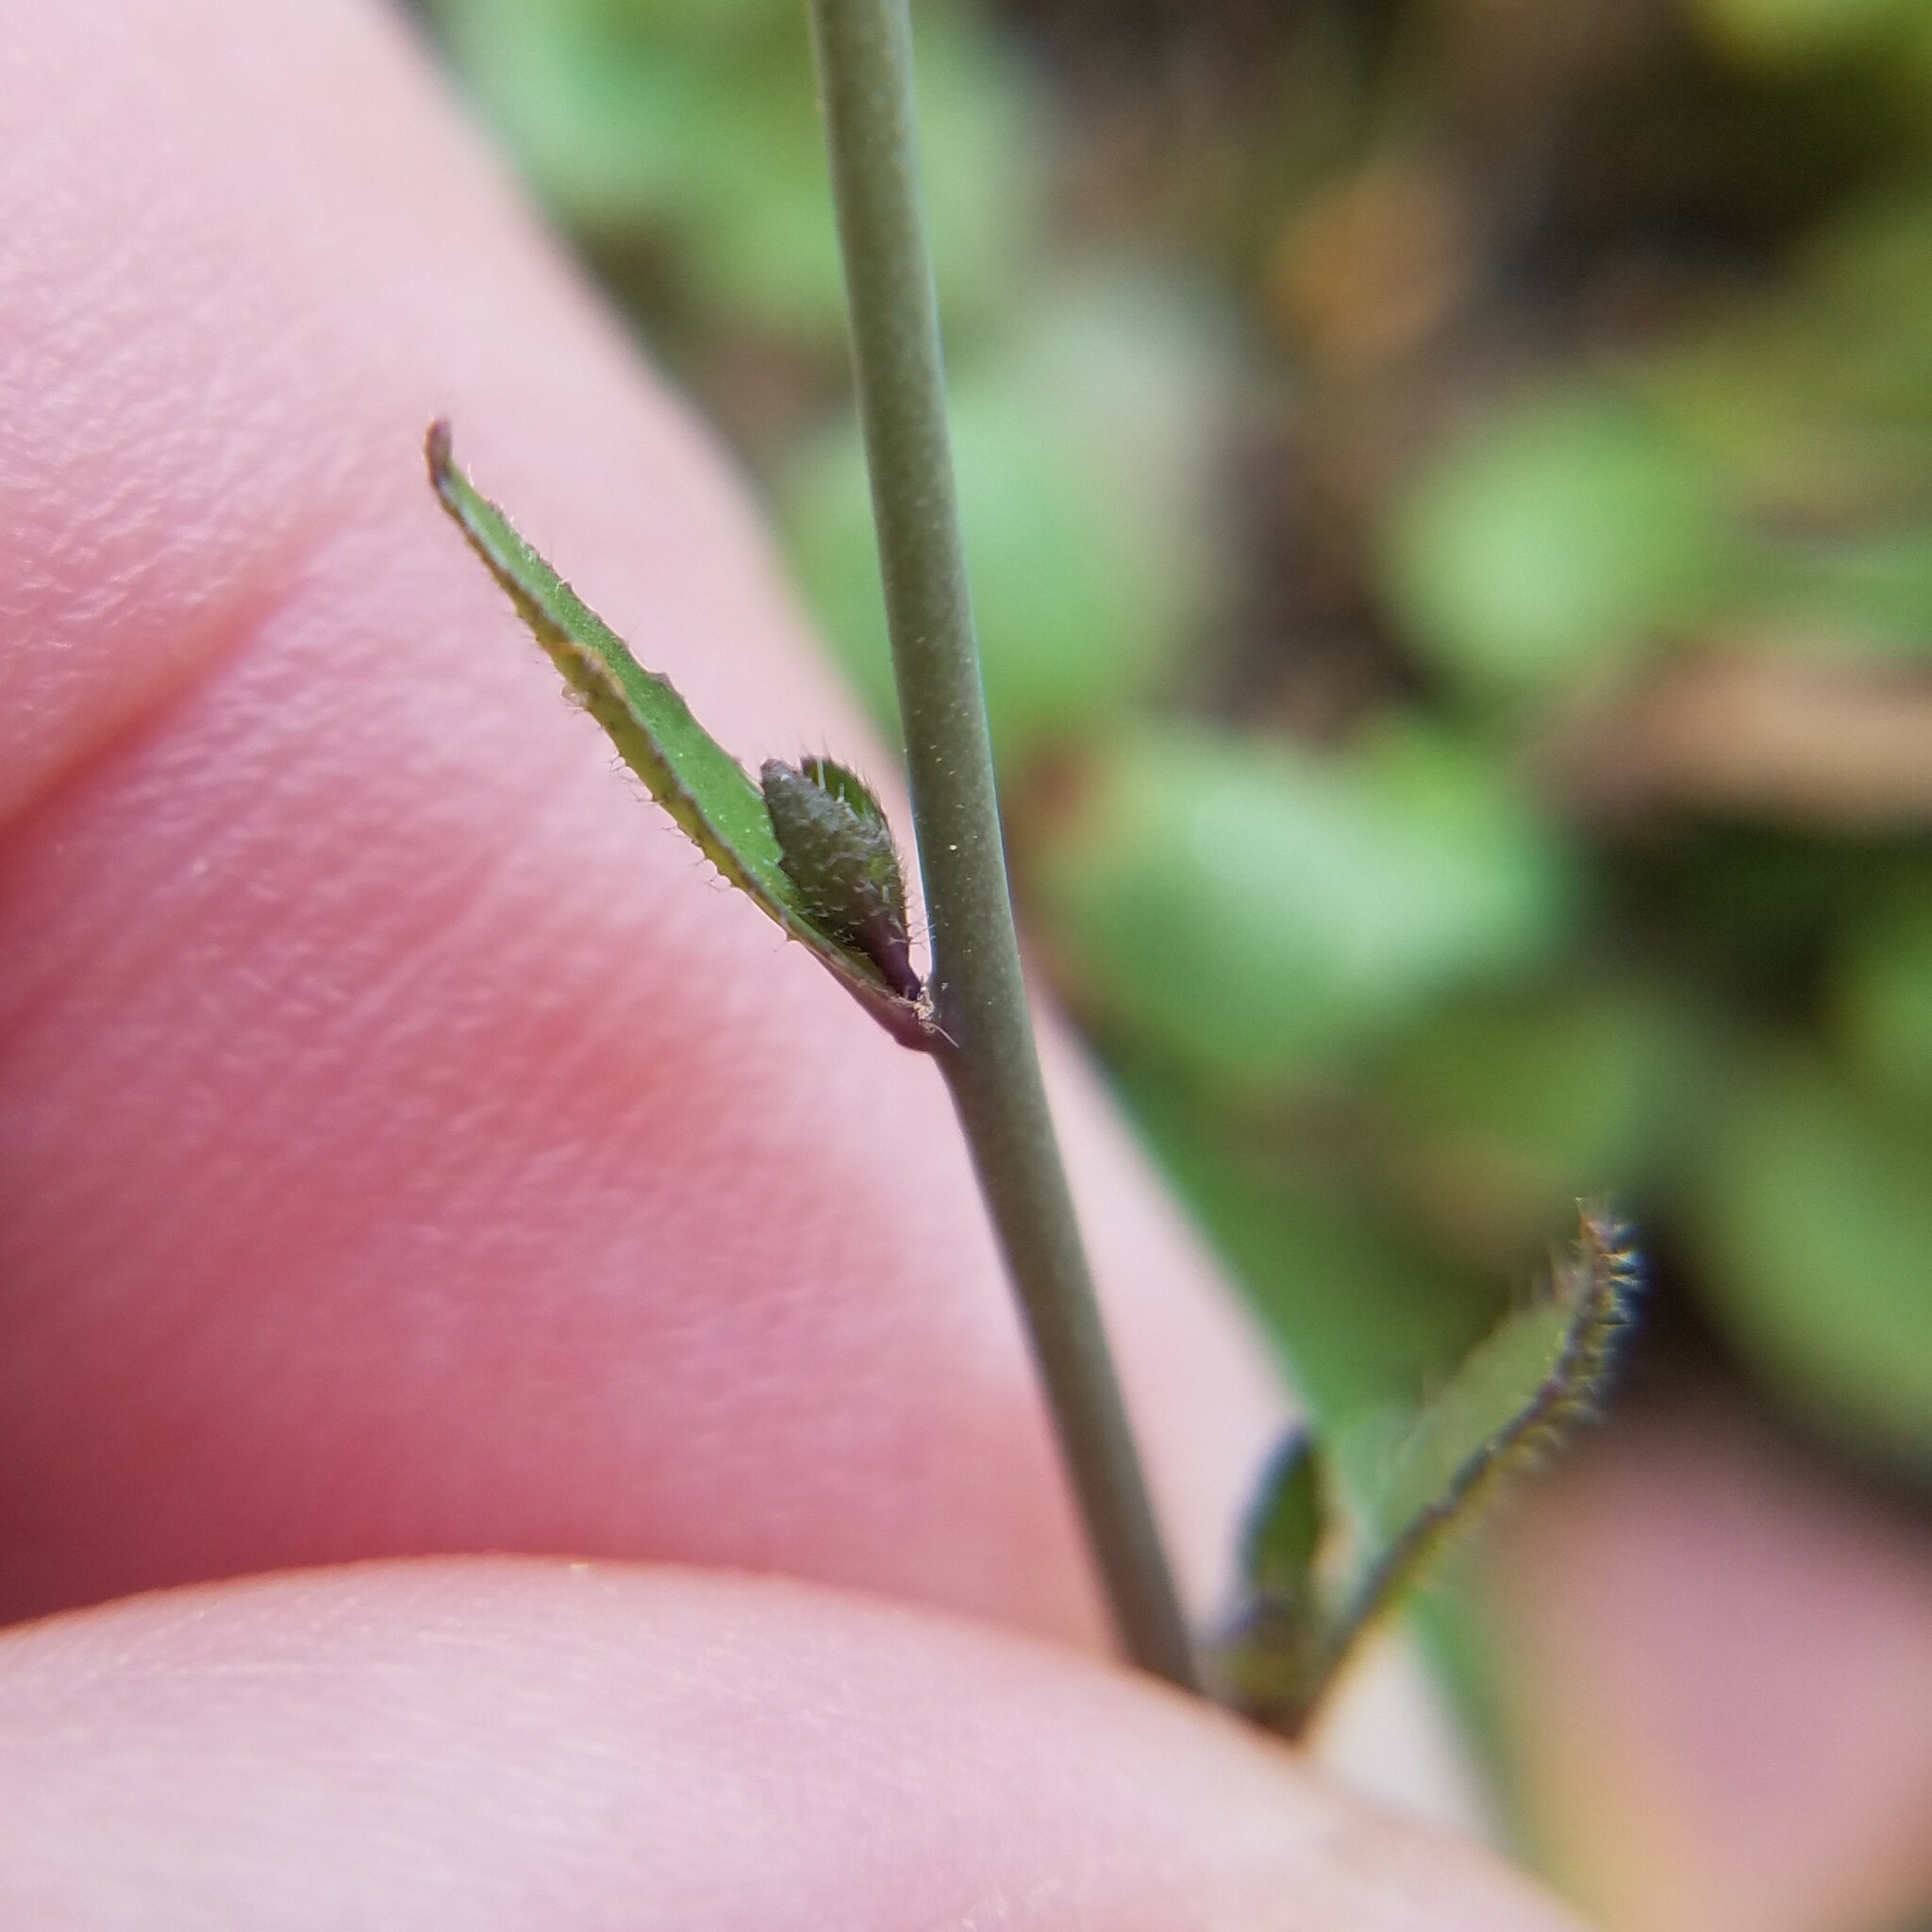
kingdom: Plantae
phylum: Tracheophyta
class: Magnoliopsida
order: Brassicales
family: Brassicaceae
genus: Arabidopsis
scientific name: Arabidopsis thaliana
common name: Thale cress
